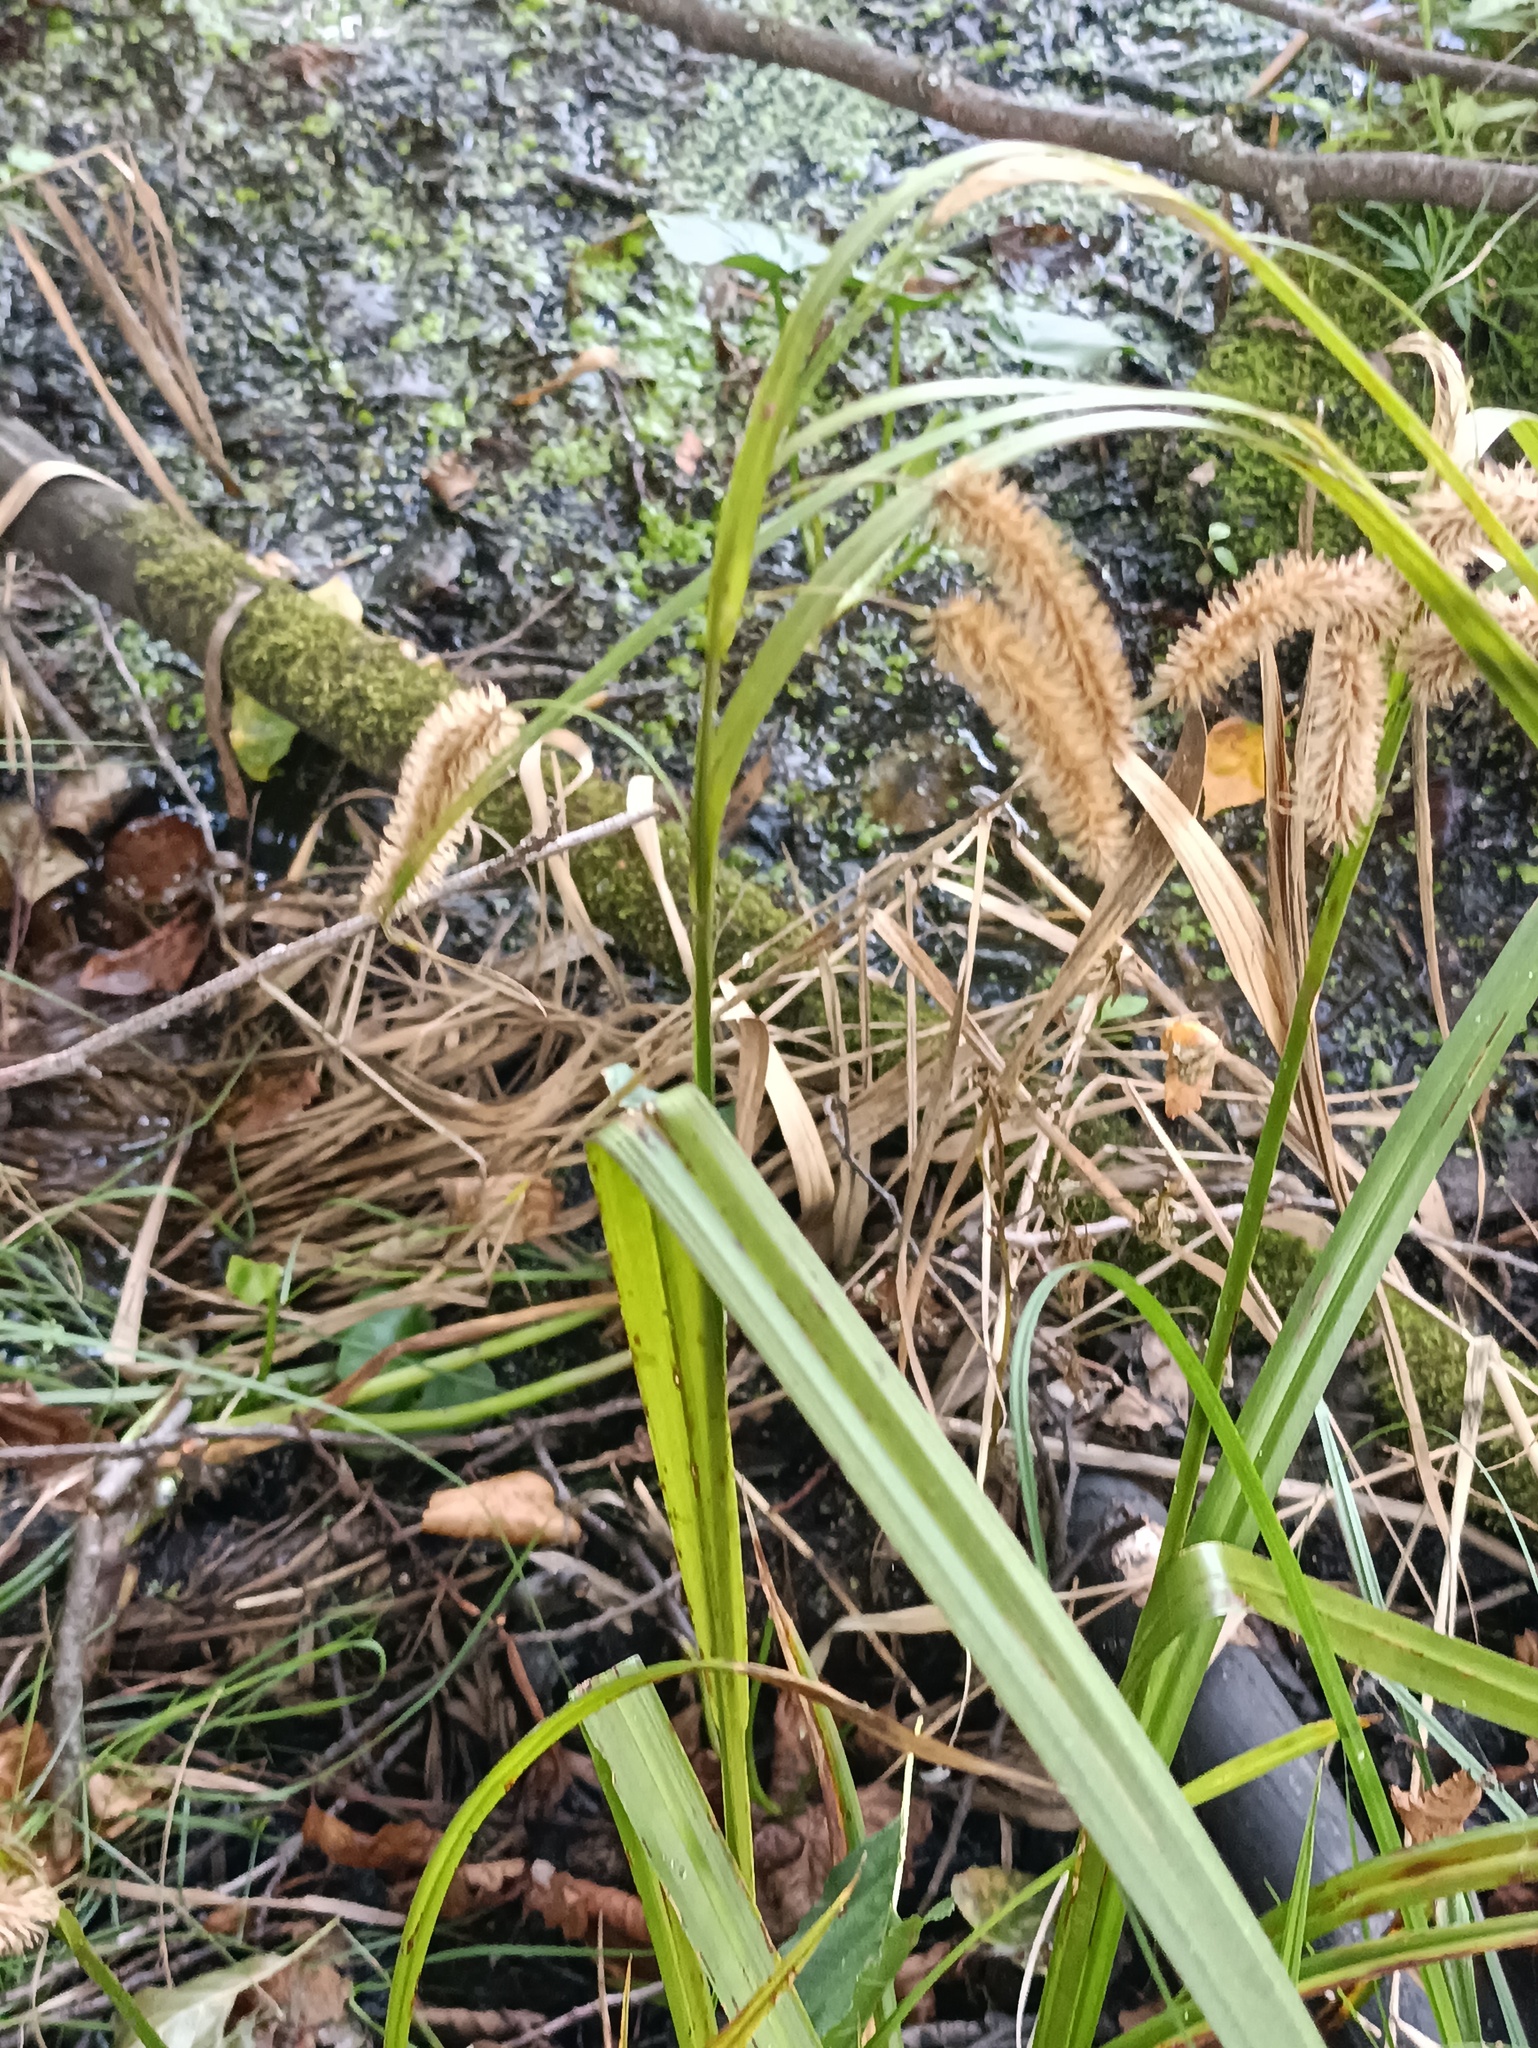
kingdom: Plantae
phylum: Tracheophyta
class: Liliopsida
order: Poales
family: Cyperaceae
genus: Carex
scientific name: Carex pseudocyperus
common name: Cyperus sedge
